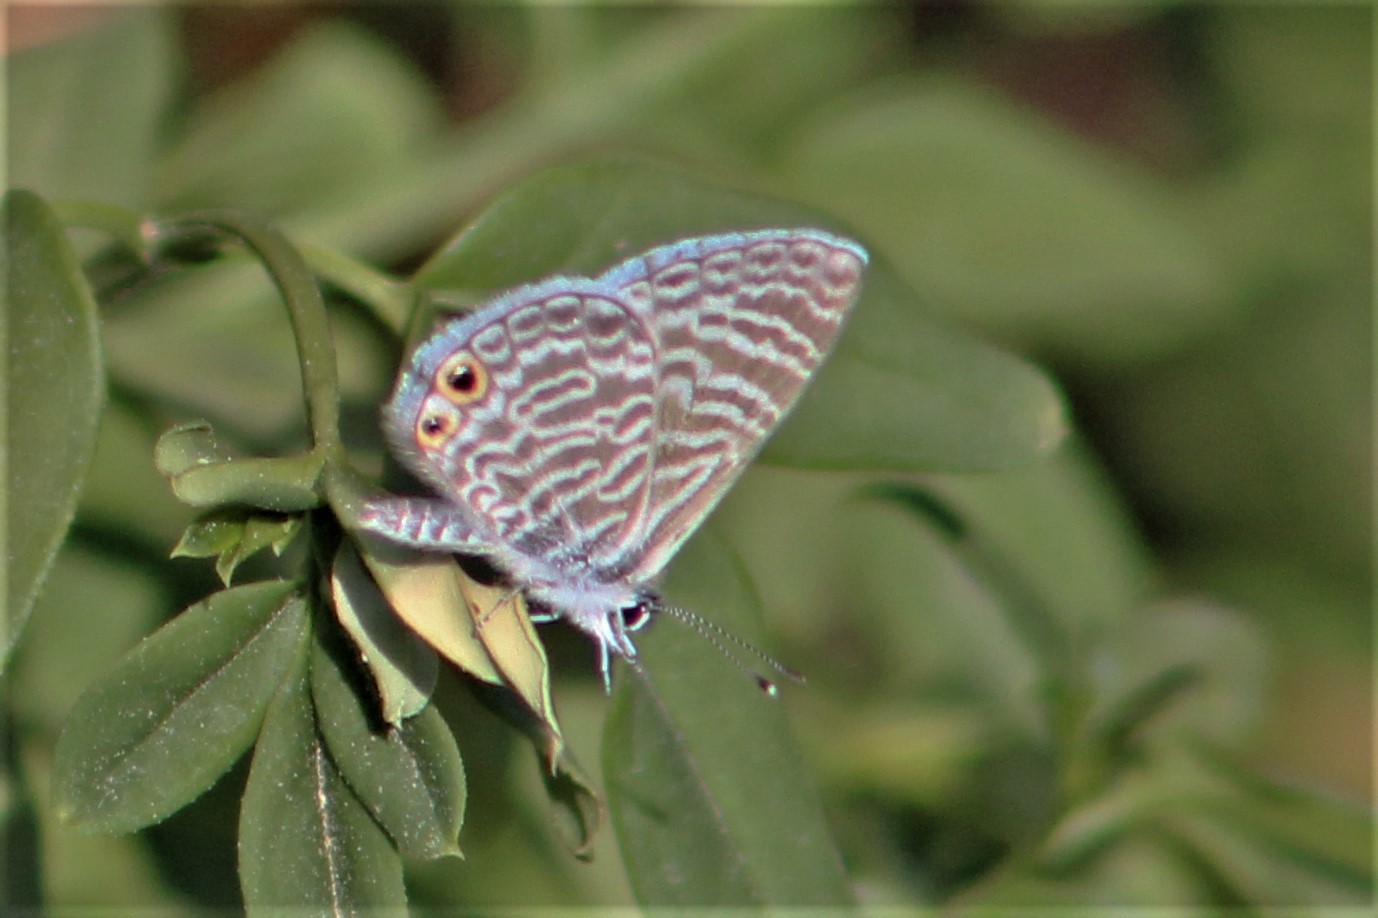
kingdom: Animalia
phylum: Arthropoda
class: Insecta
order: Lepidoptera
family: Lycaenidae
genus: Leptotes
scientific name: Leptotes marina
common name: Marine blue
